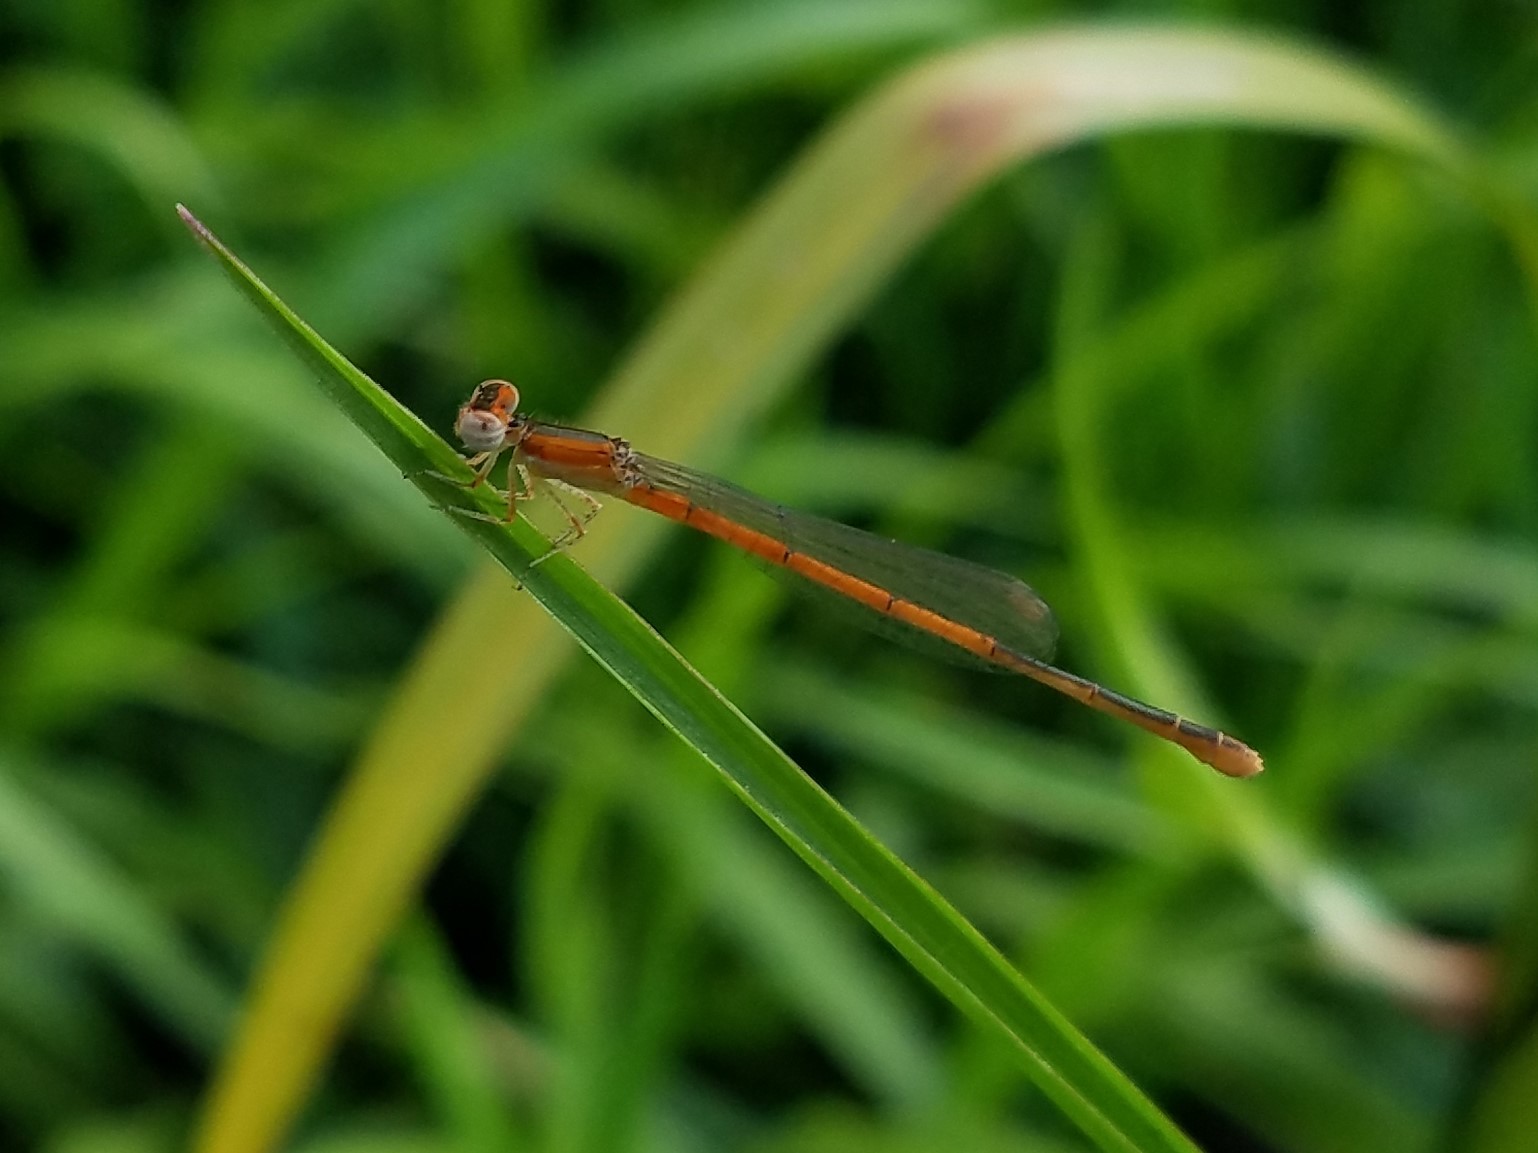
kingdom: Animalia
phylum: Arthropoda
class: Insecta
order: Odonata
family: Coenagrionidae
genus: Ischnura
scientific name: Ischnura hastata
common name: Citrine forktail
